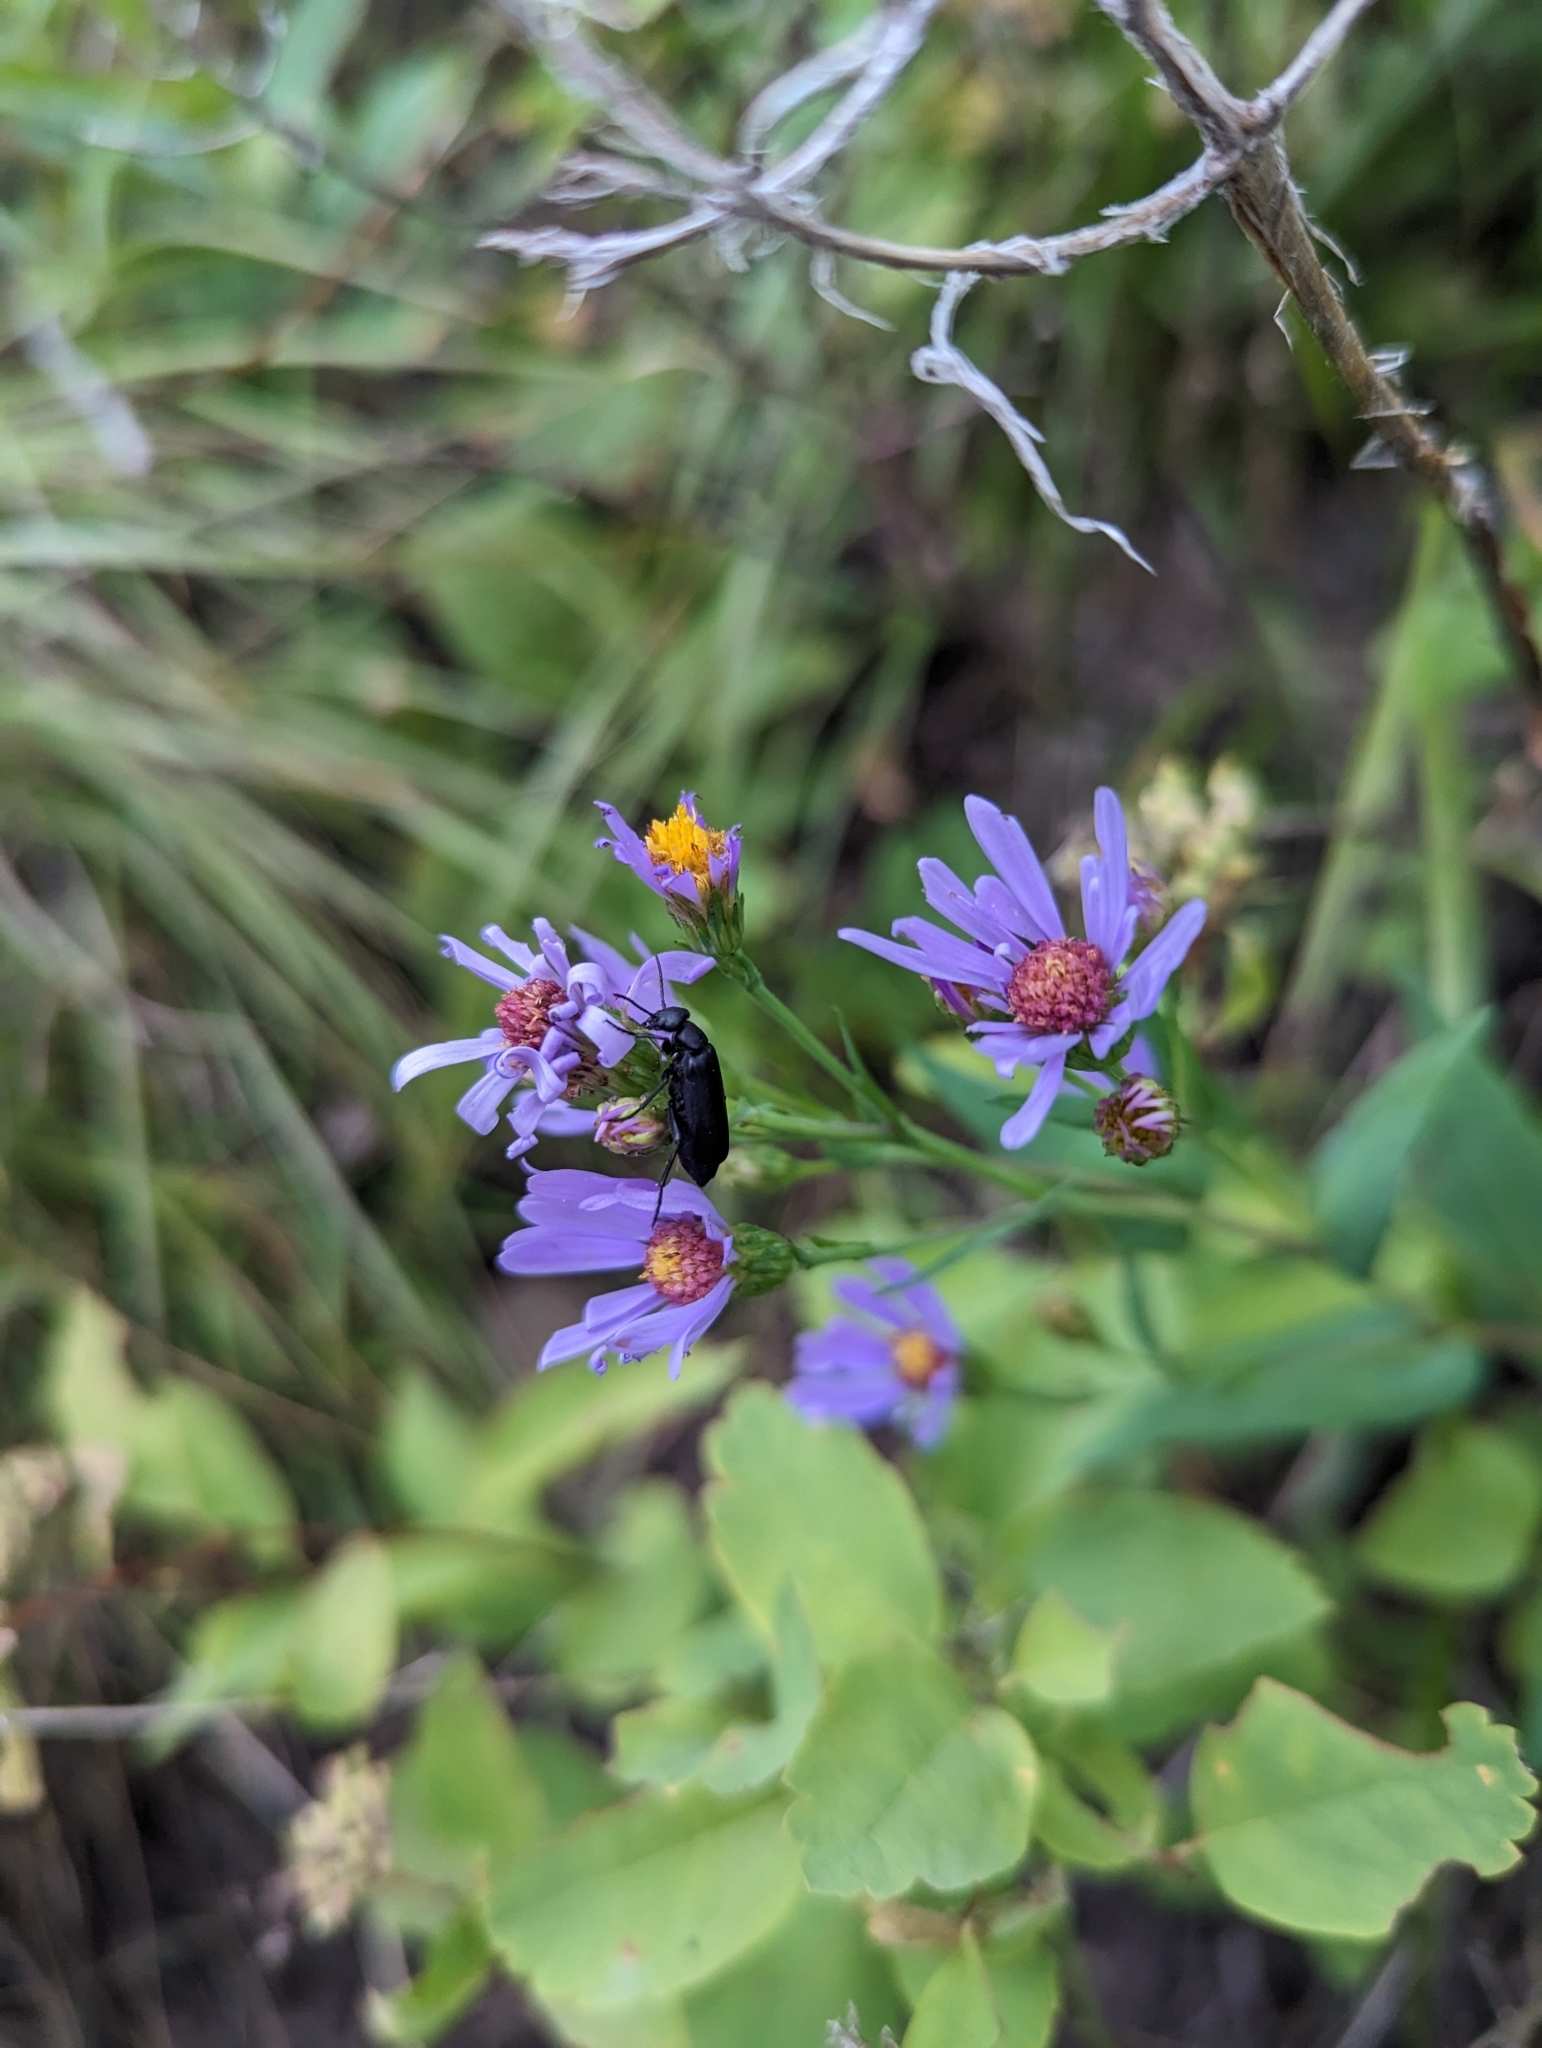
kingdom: Plantae
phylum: Tracheophyta
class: Magnoliopsida
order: Asterales
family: Asteraceae
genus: Symphyotrichum
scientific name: Symphyotrichum laeve
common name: Glaucous aster
